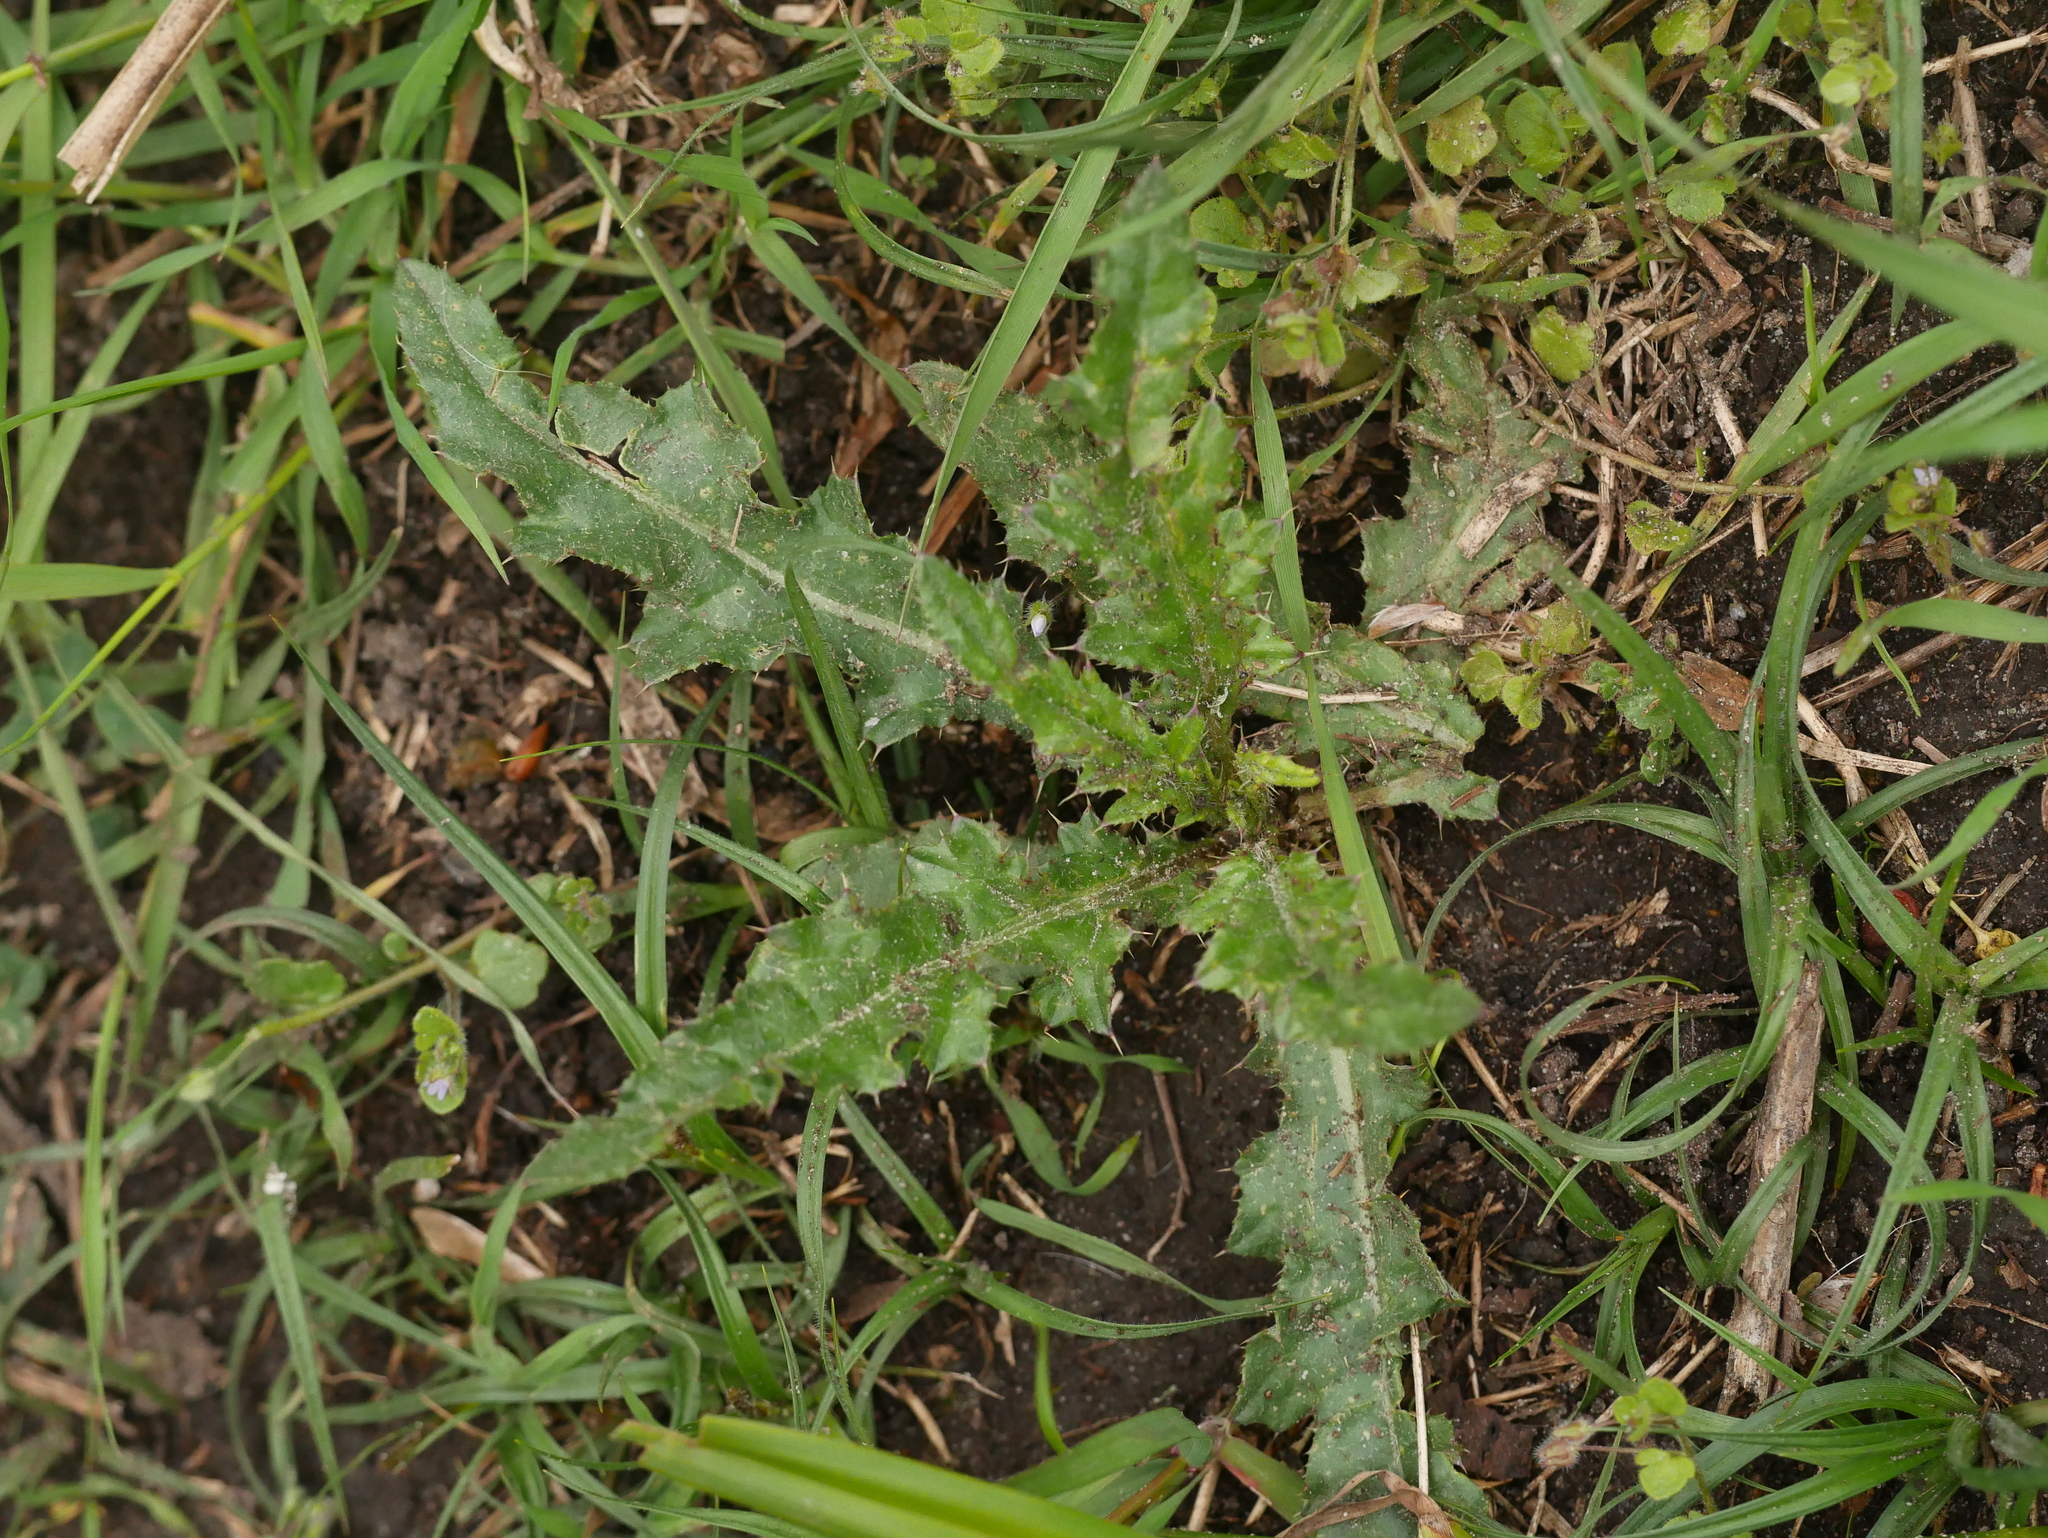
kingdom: Plantae
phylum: Tracheophyta
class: Magnoliopsida
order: Asterales
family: Asteraceae
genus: Cirsium
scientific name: Cirsium arvense
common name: Creeping thistle
